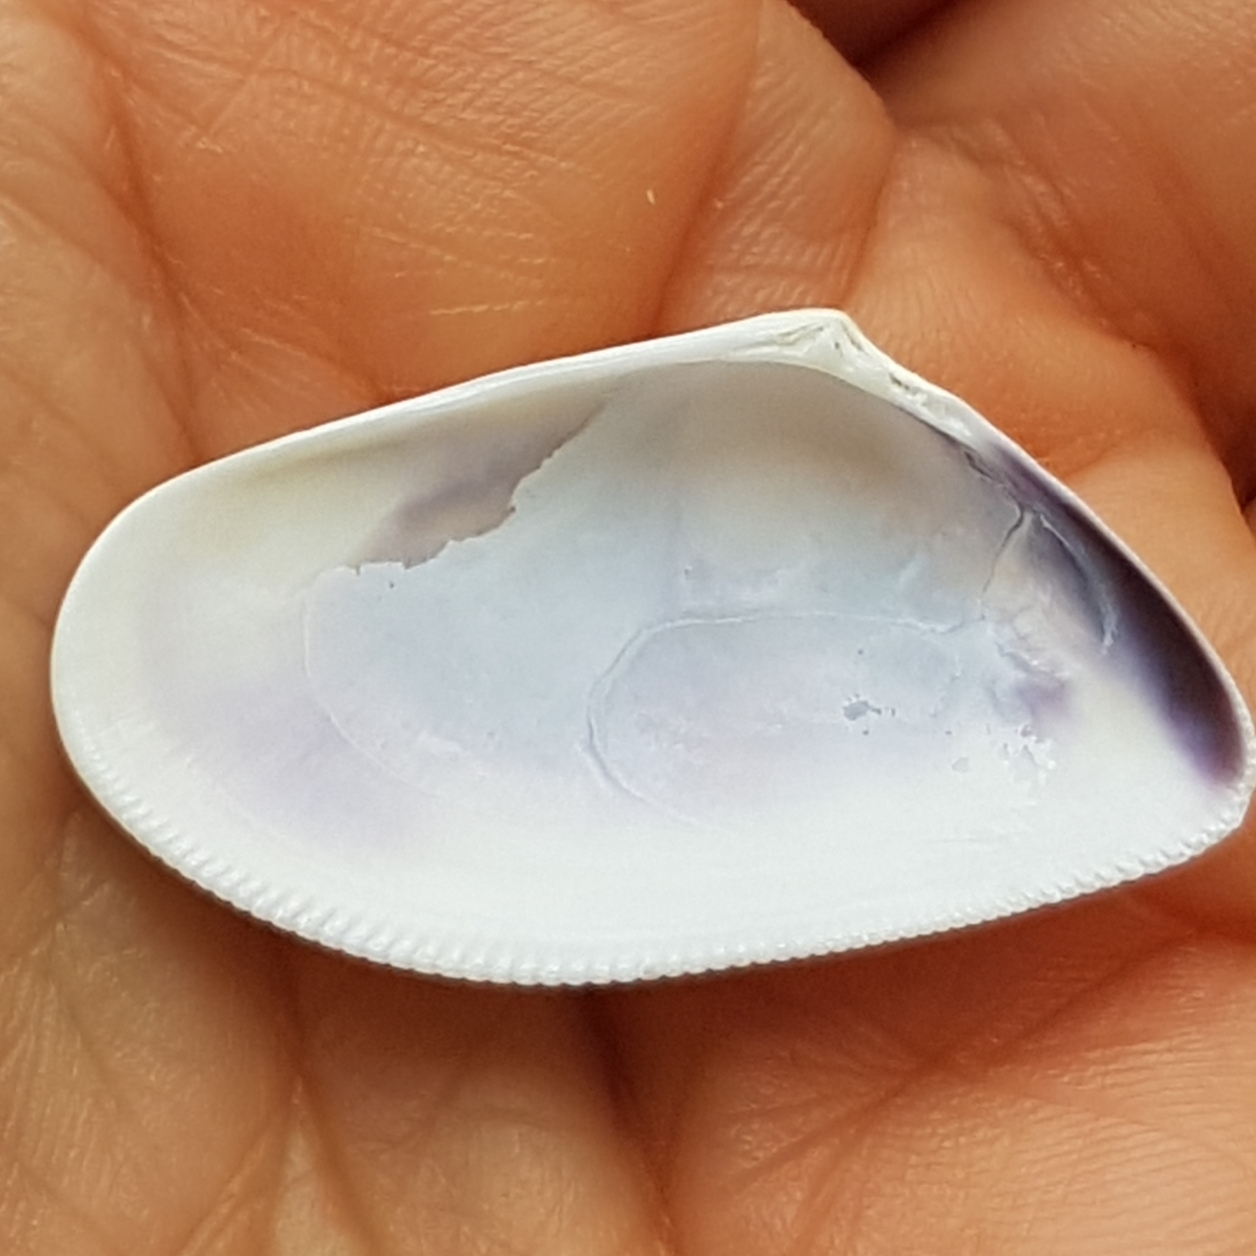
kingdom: Animalia
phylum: Mollusca
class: Bivalvia
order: Cardiida
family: Donacidae
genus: Donax
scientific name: Donax semistriatus
